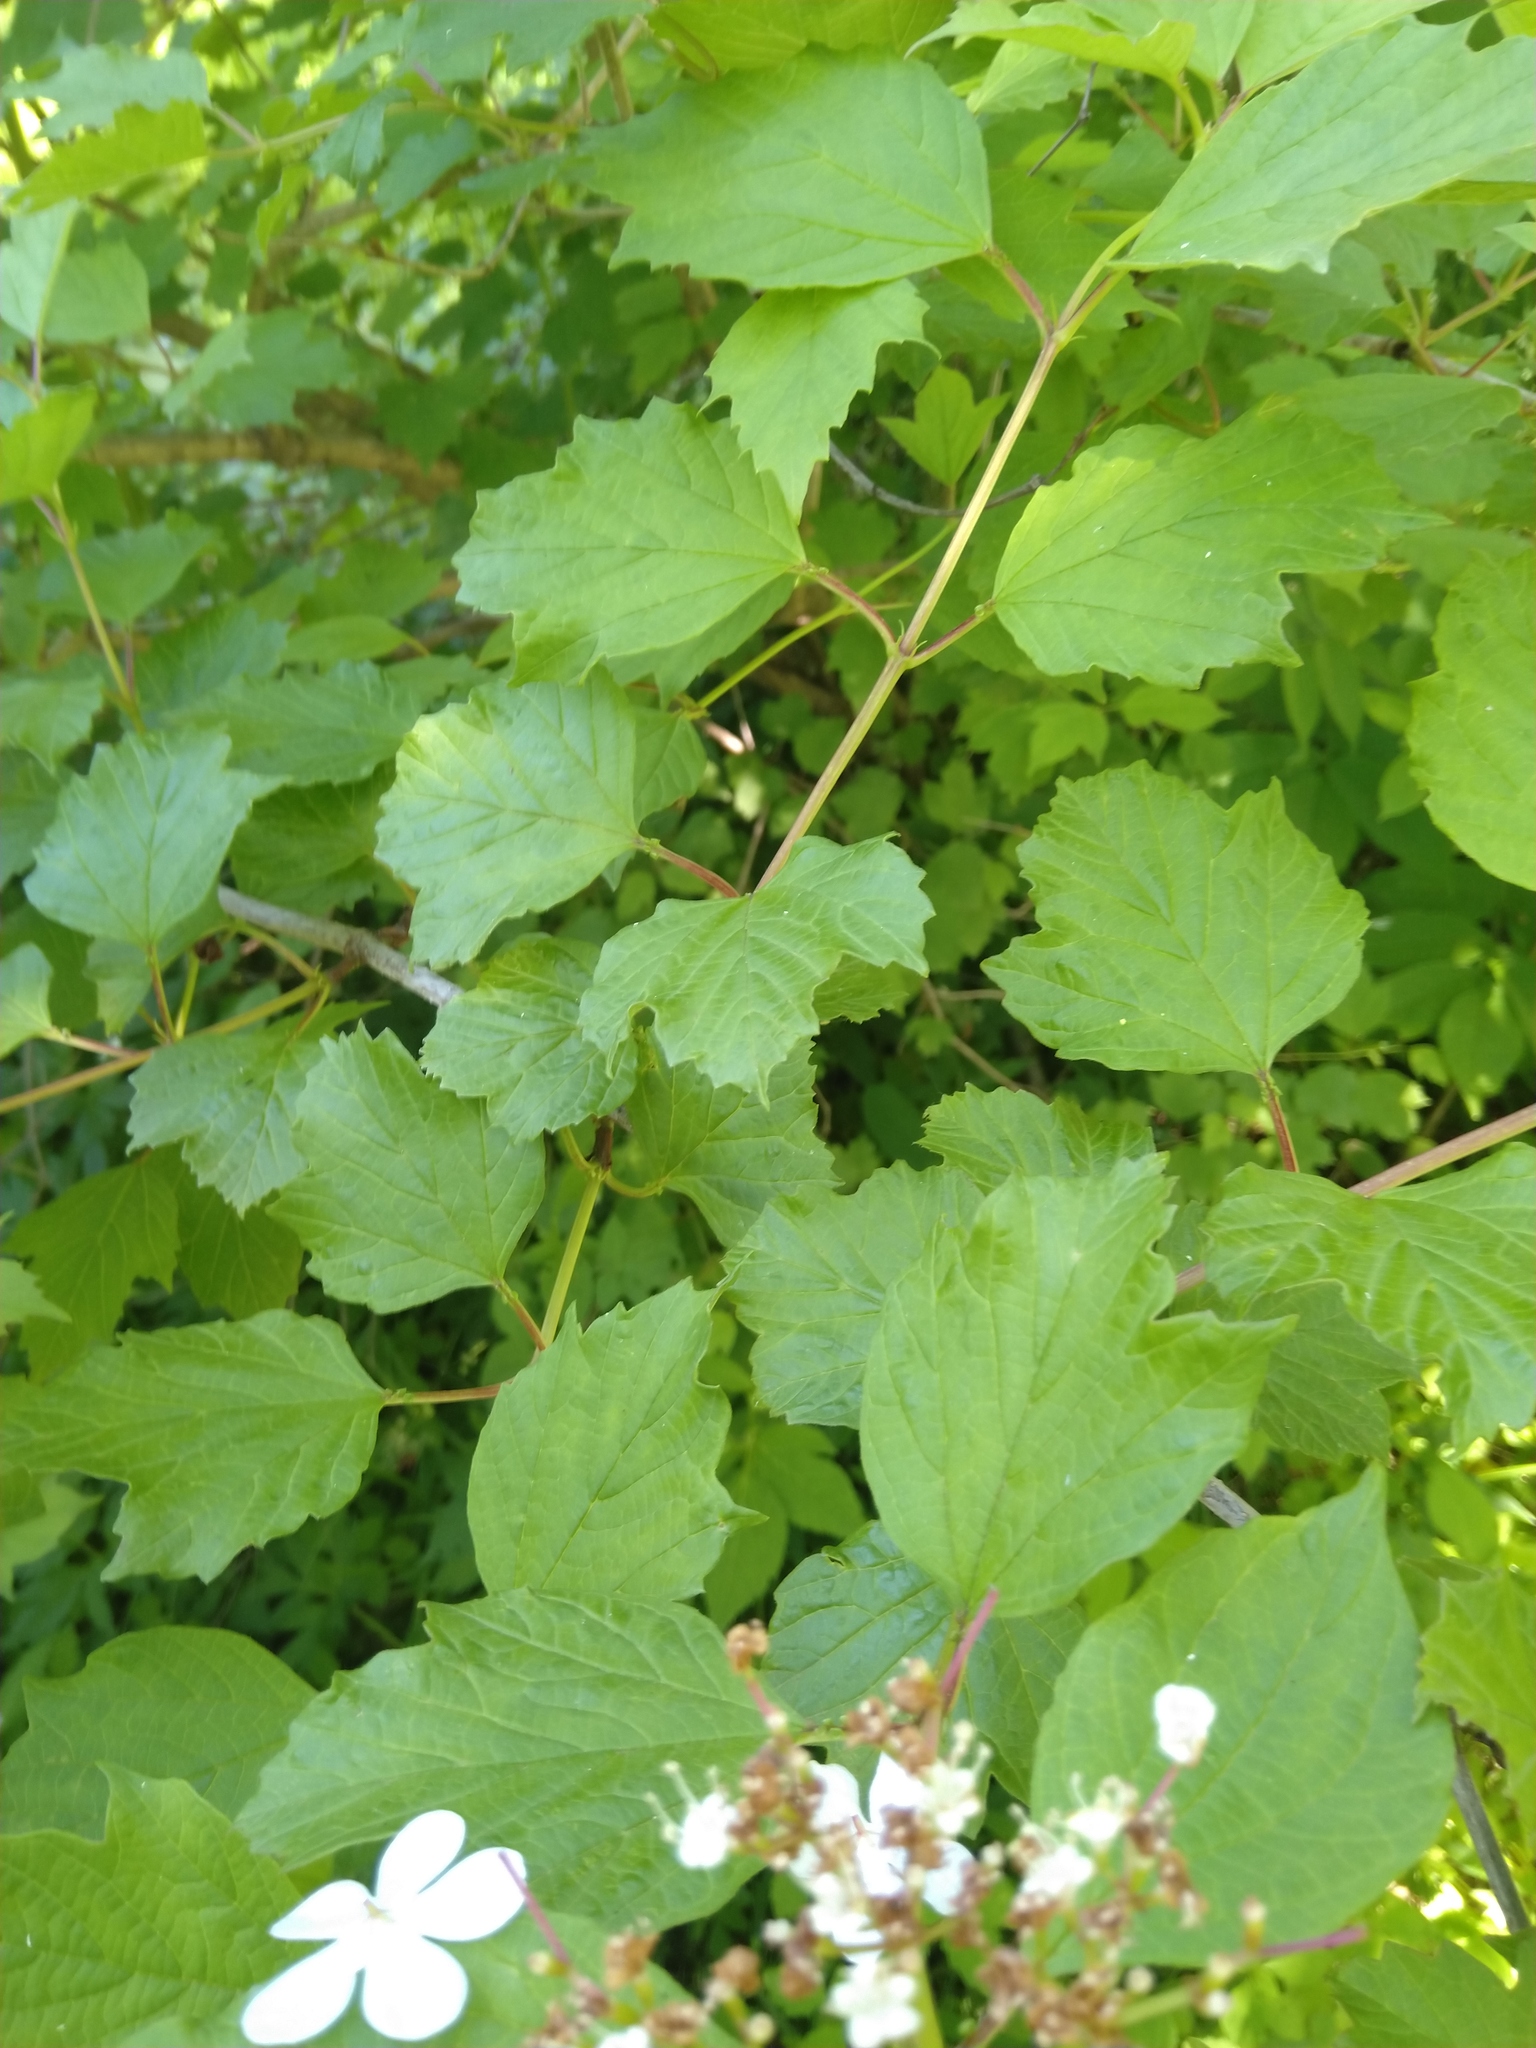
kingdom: Plantae
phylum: Tracheophyta
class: Magnoliopsida
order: Dipsacales
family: Viburnaceae
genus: Viburnum
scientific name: Viburnum opulus
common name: Guelder-rose
